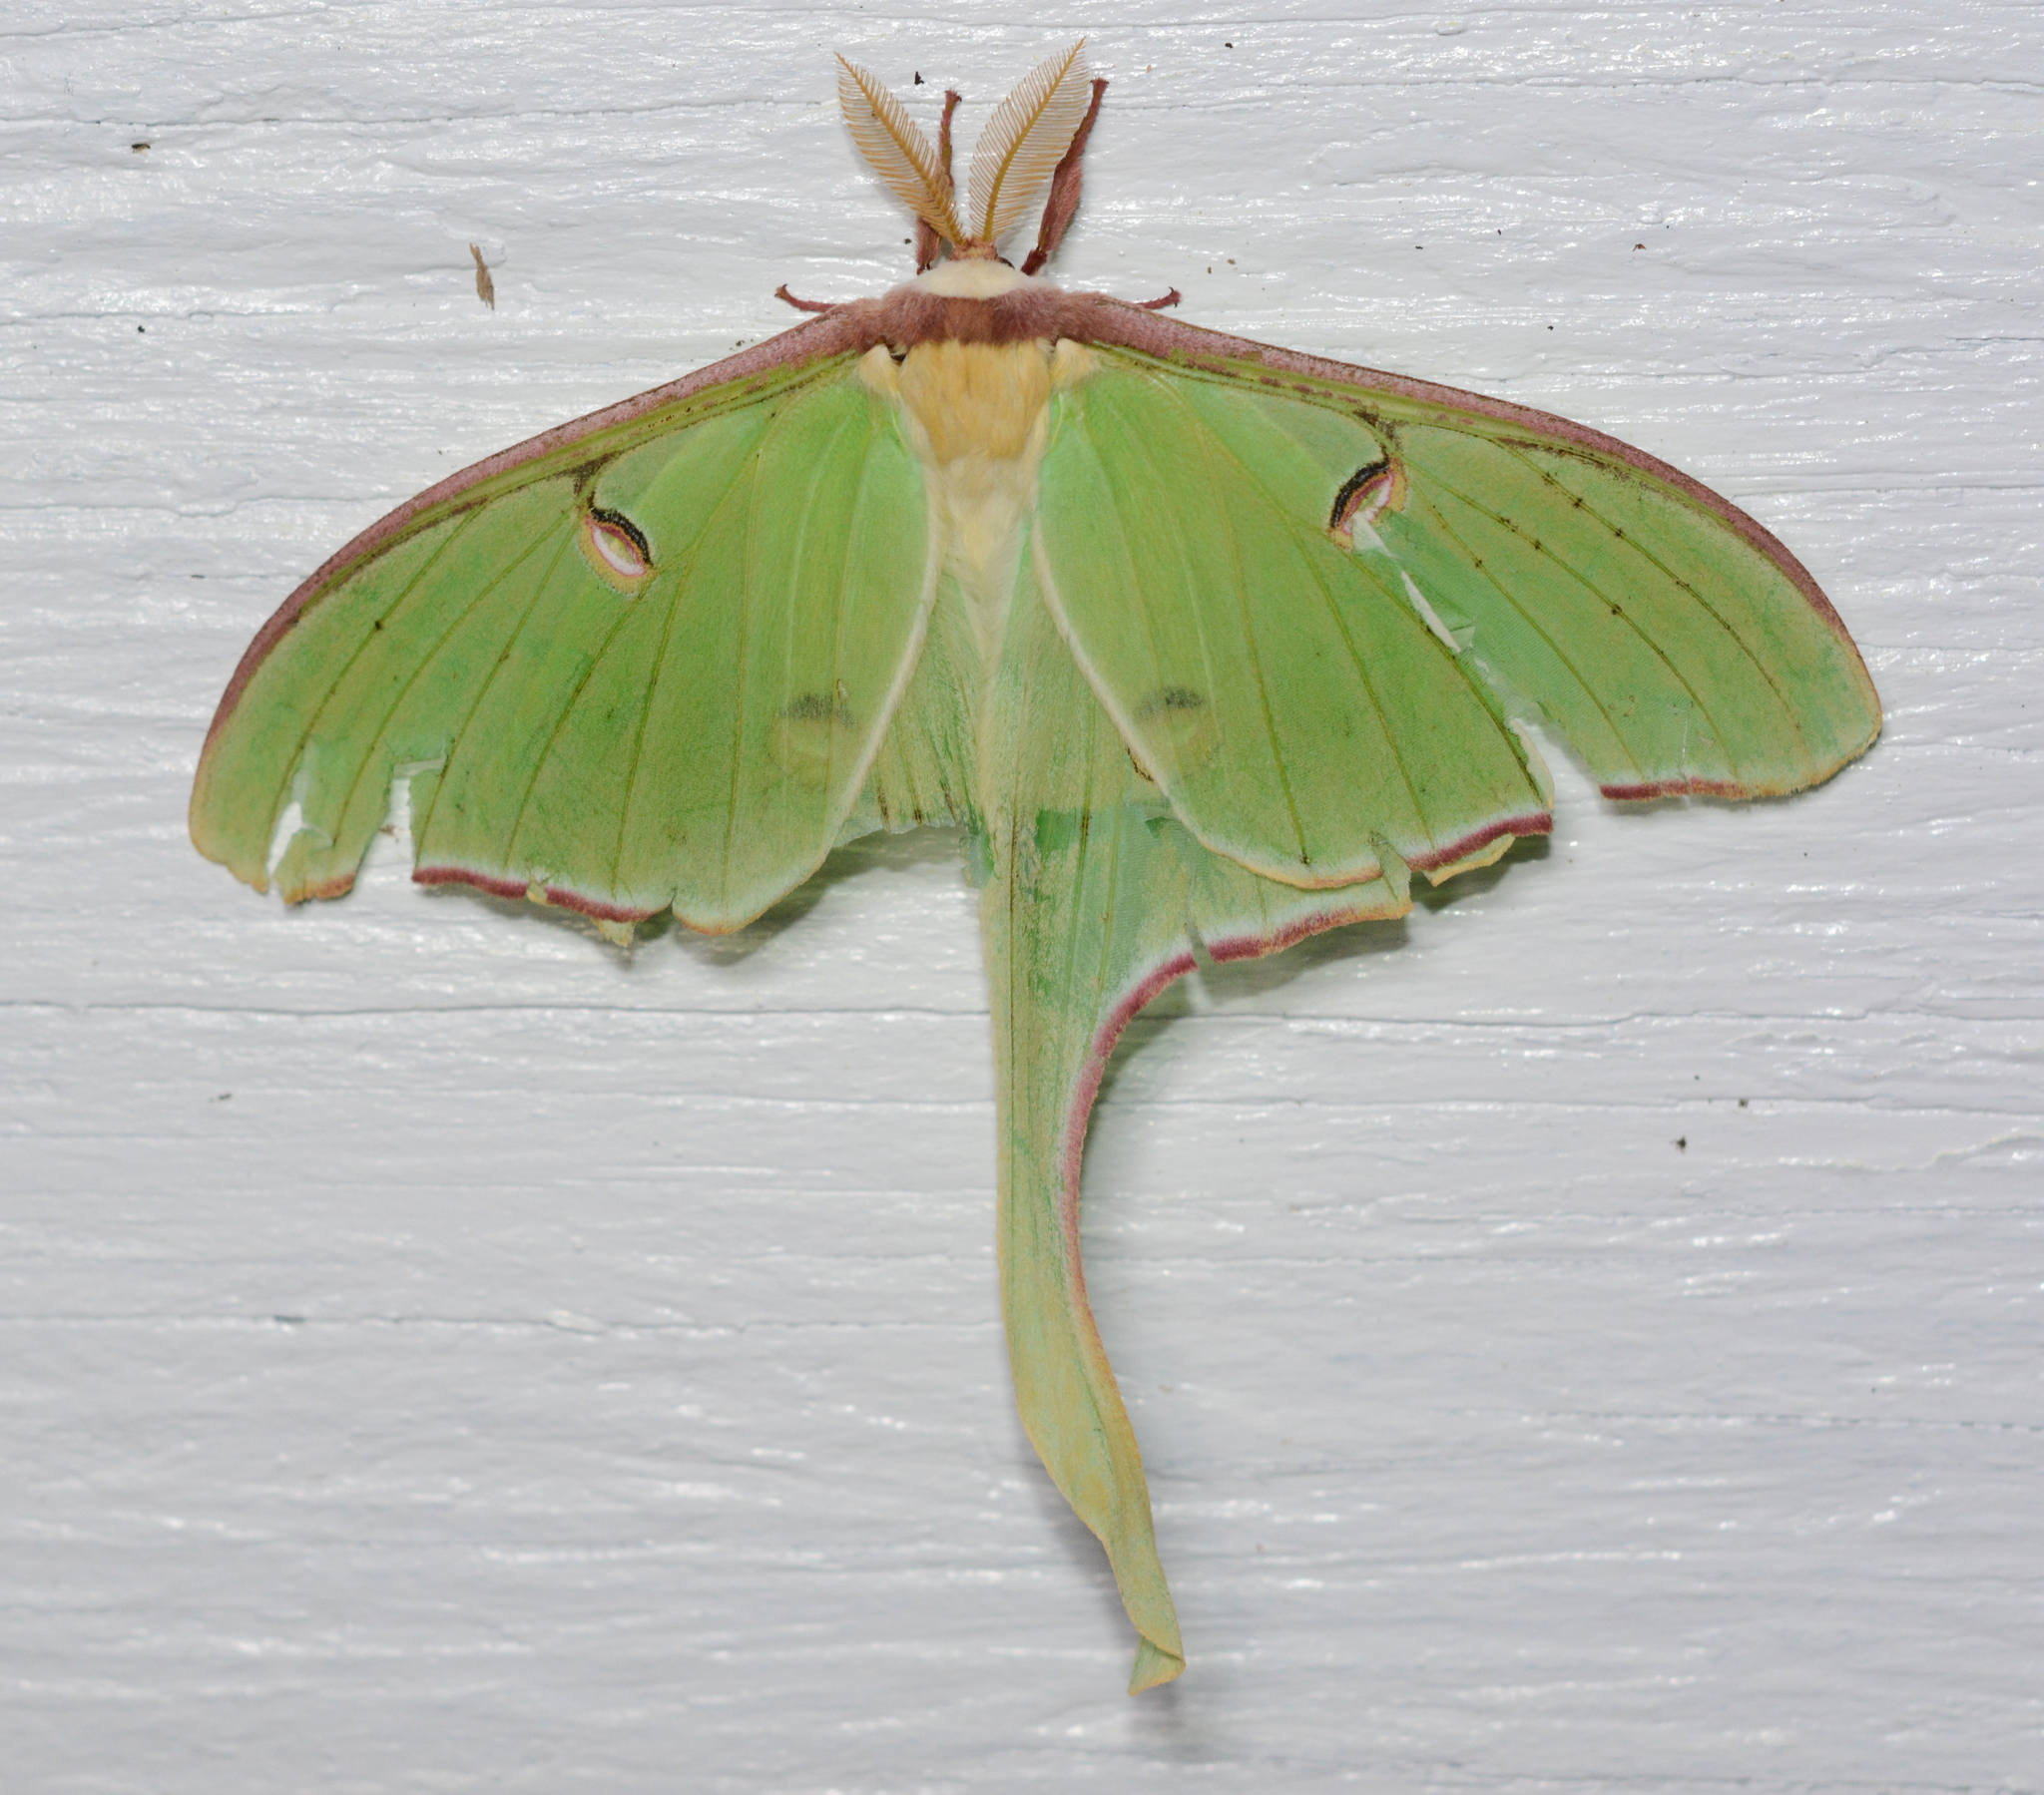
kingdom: Animalia
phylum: Arthropoda
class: Insecta
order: Lepidoptera
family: Saturniidae
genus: Actias
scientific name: Actias luna
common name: Luna moth
